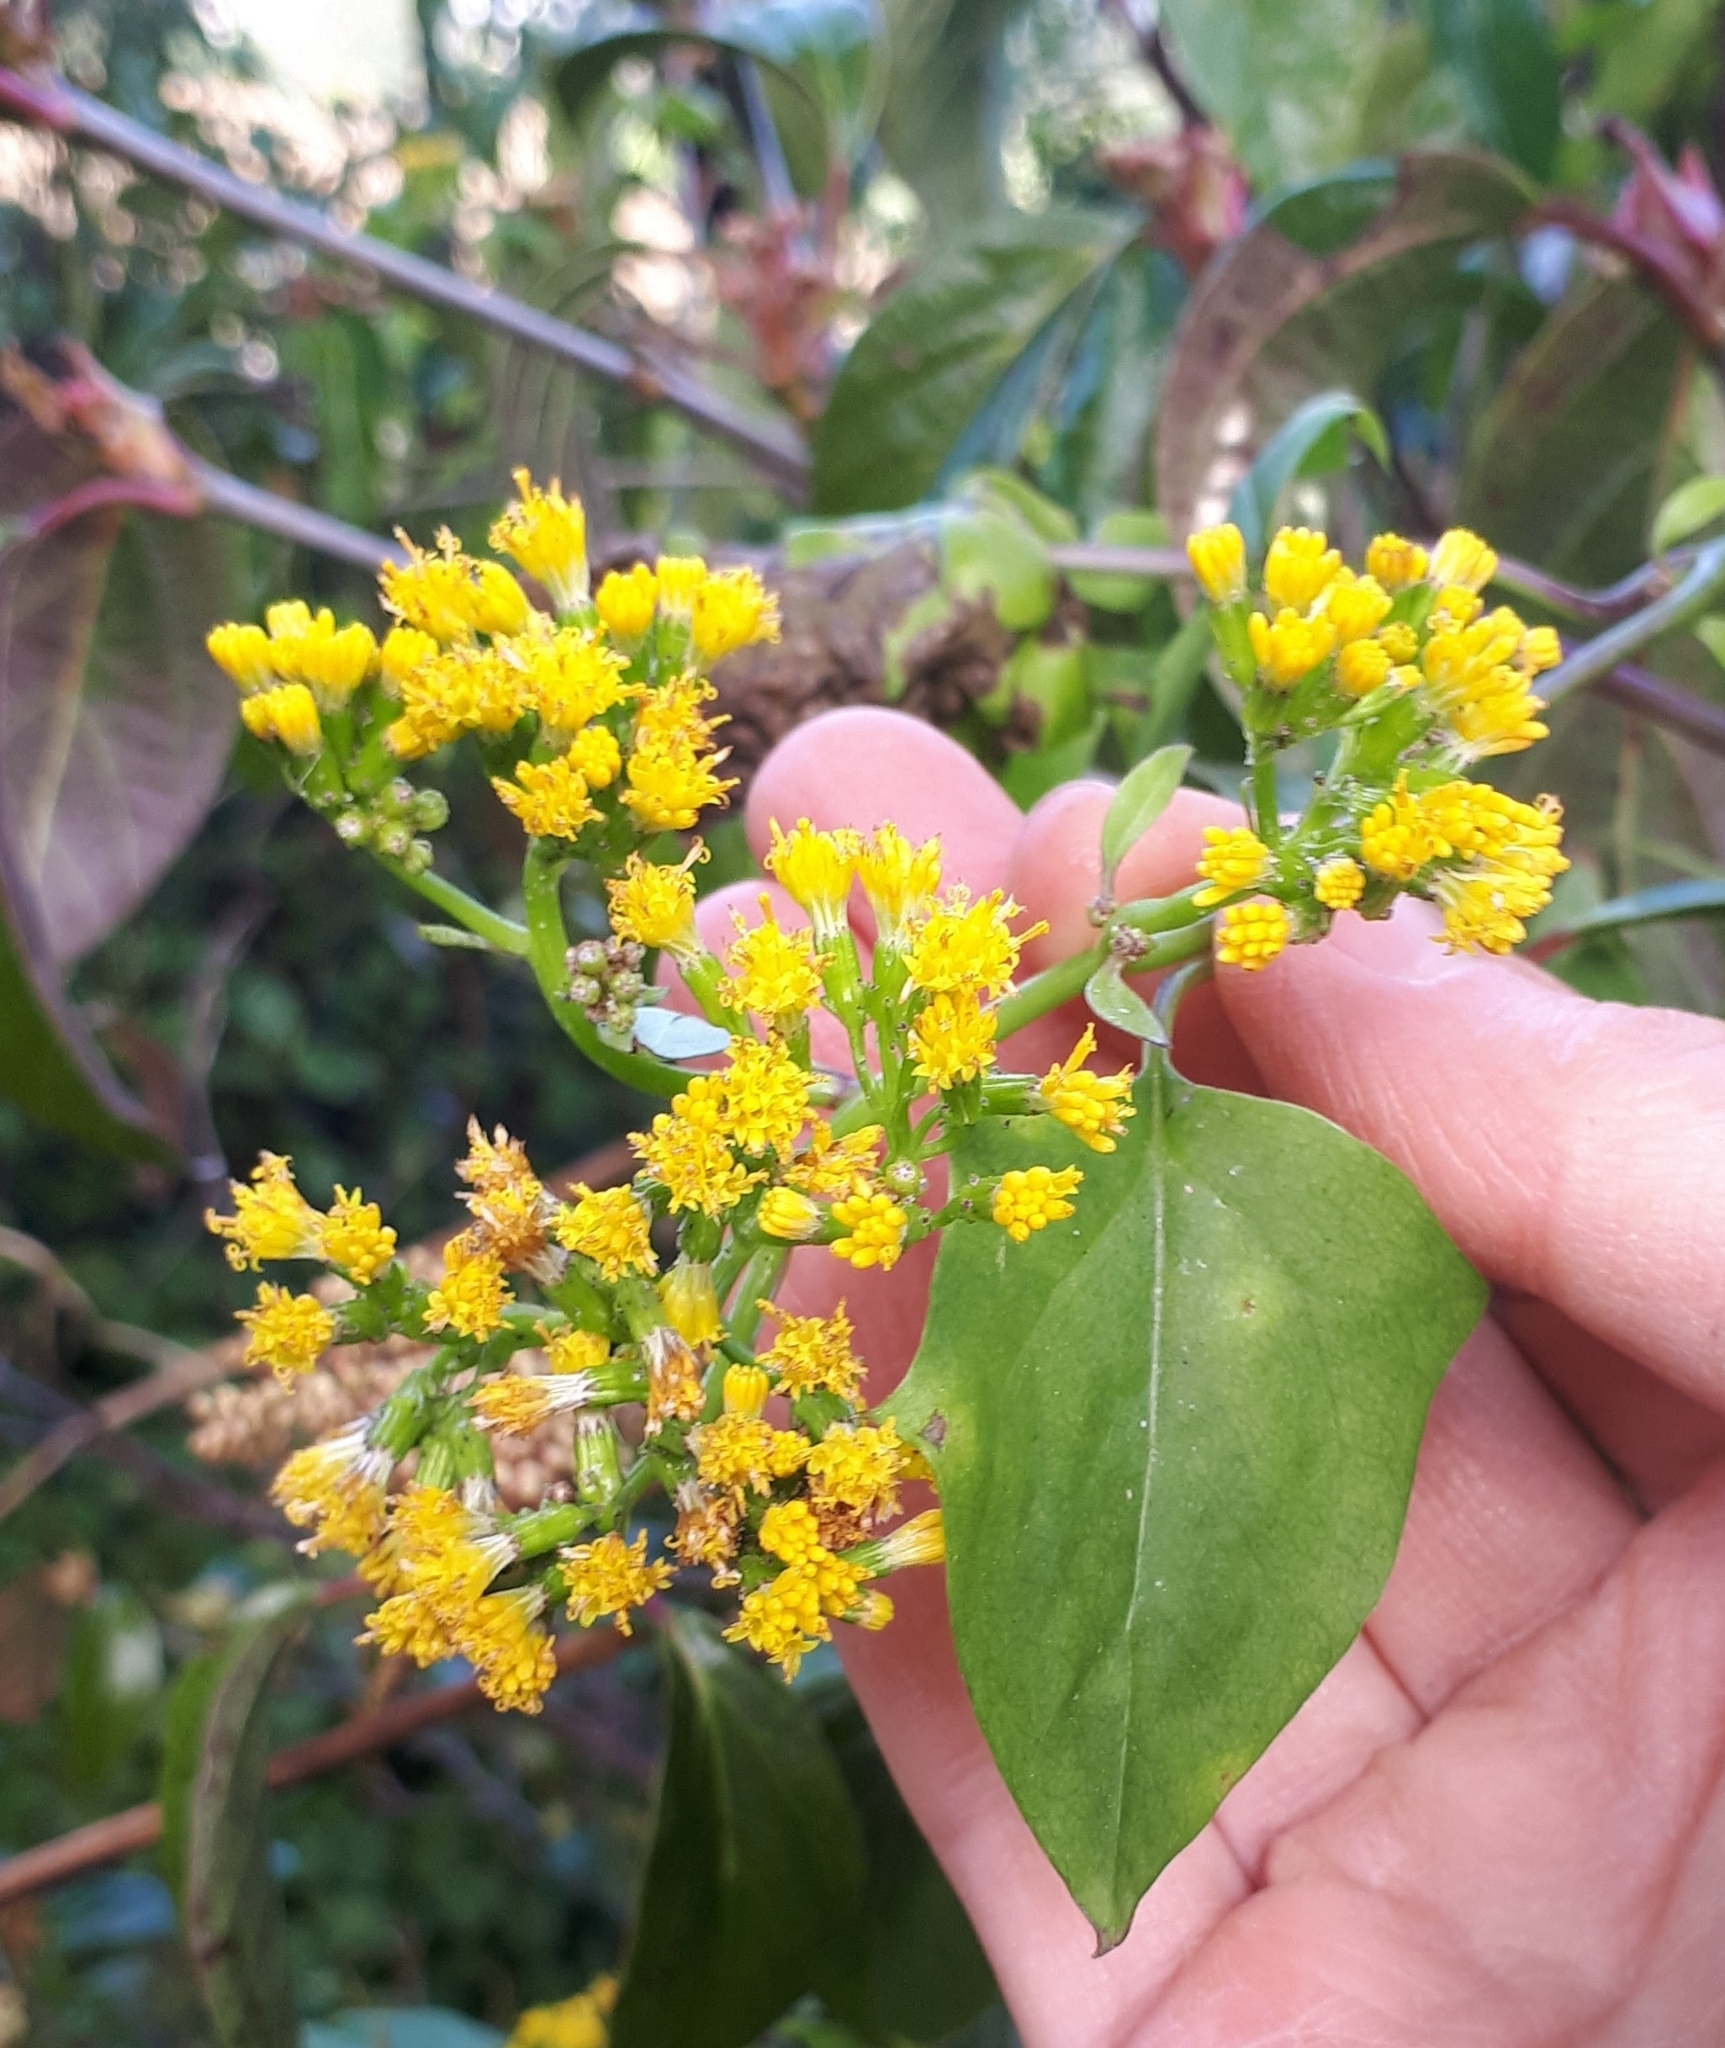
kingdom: Plantae
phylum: Tracheophyta
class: Magnoliopsida
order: Asterales
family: Asteraceae
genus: Delairea
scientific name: Delairea odorata
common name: Cape-ivy
